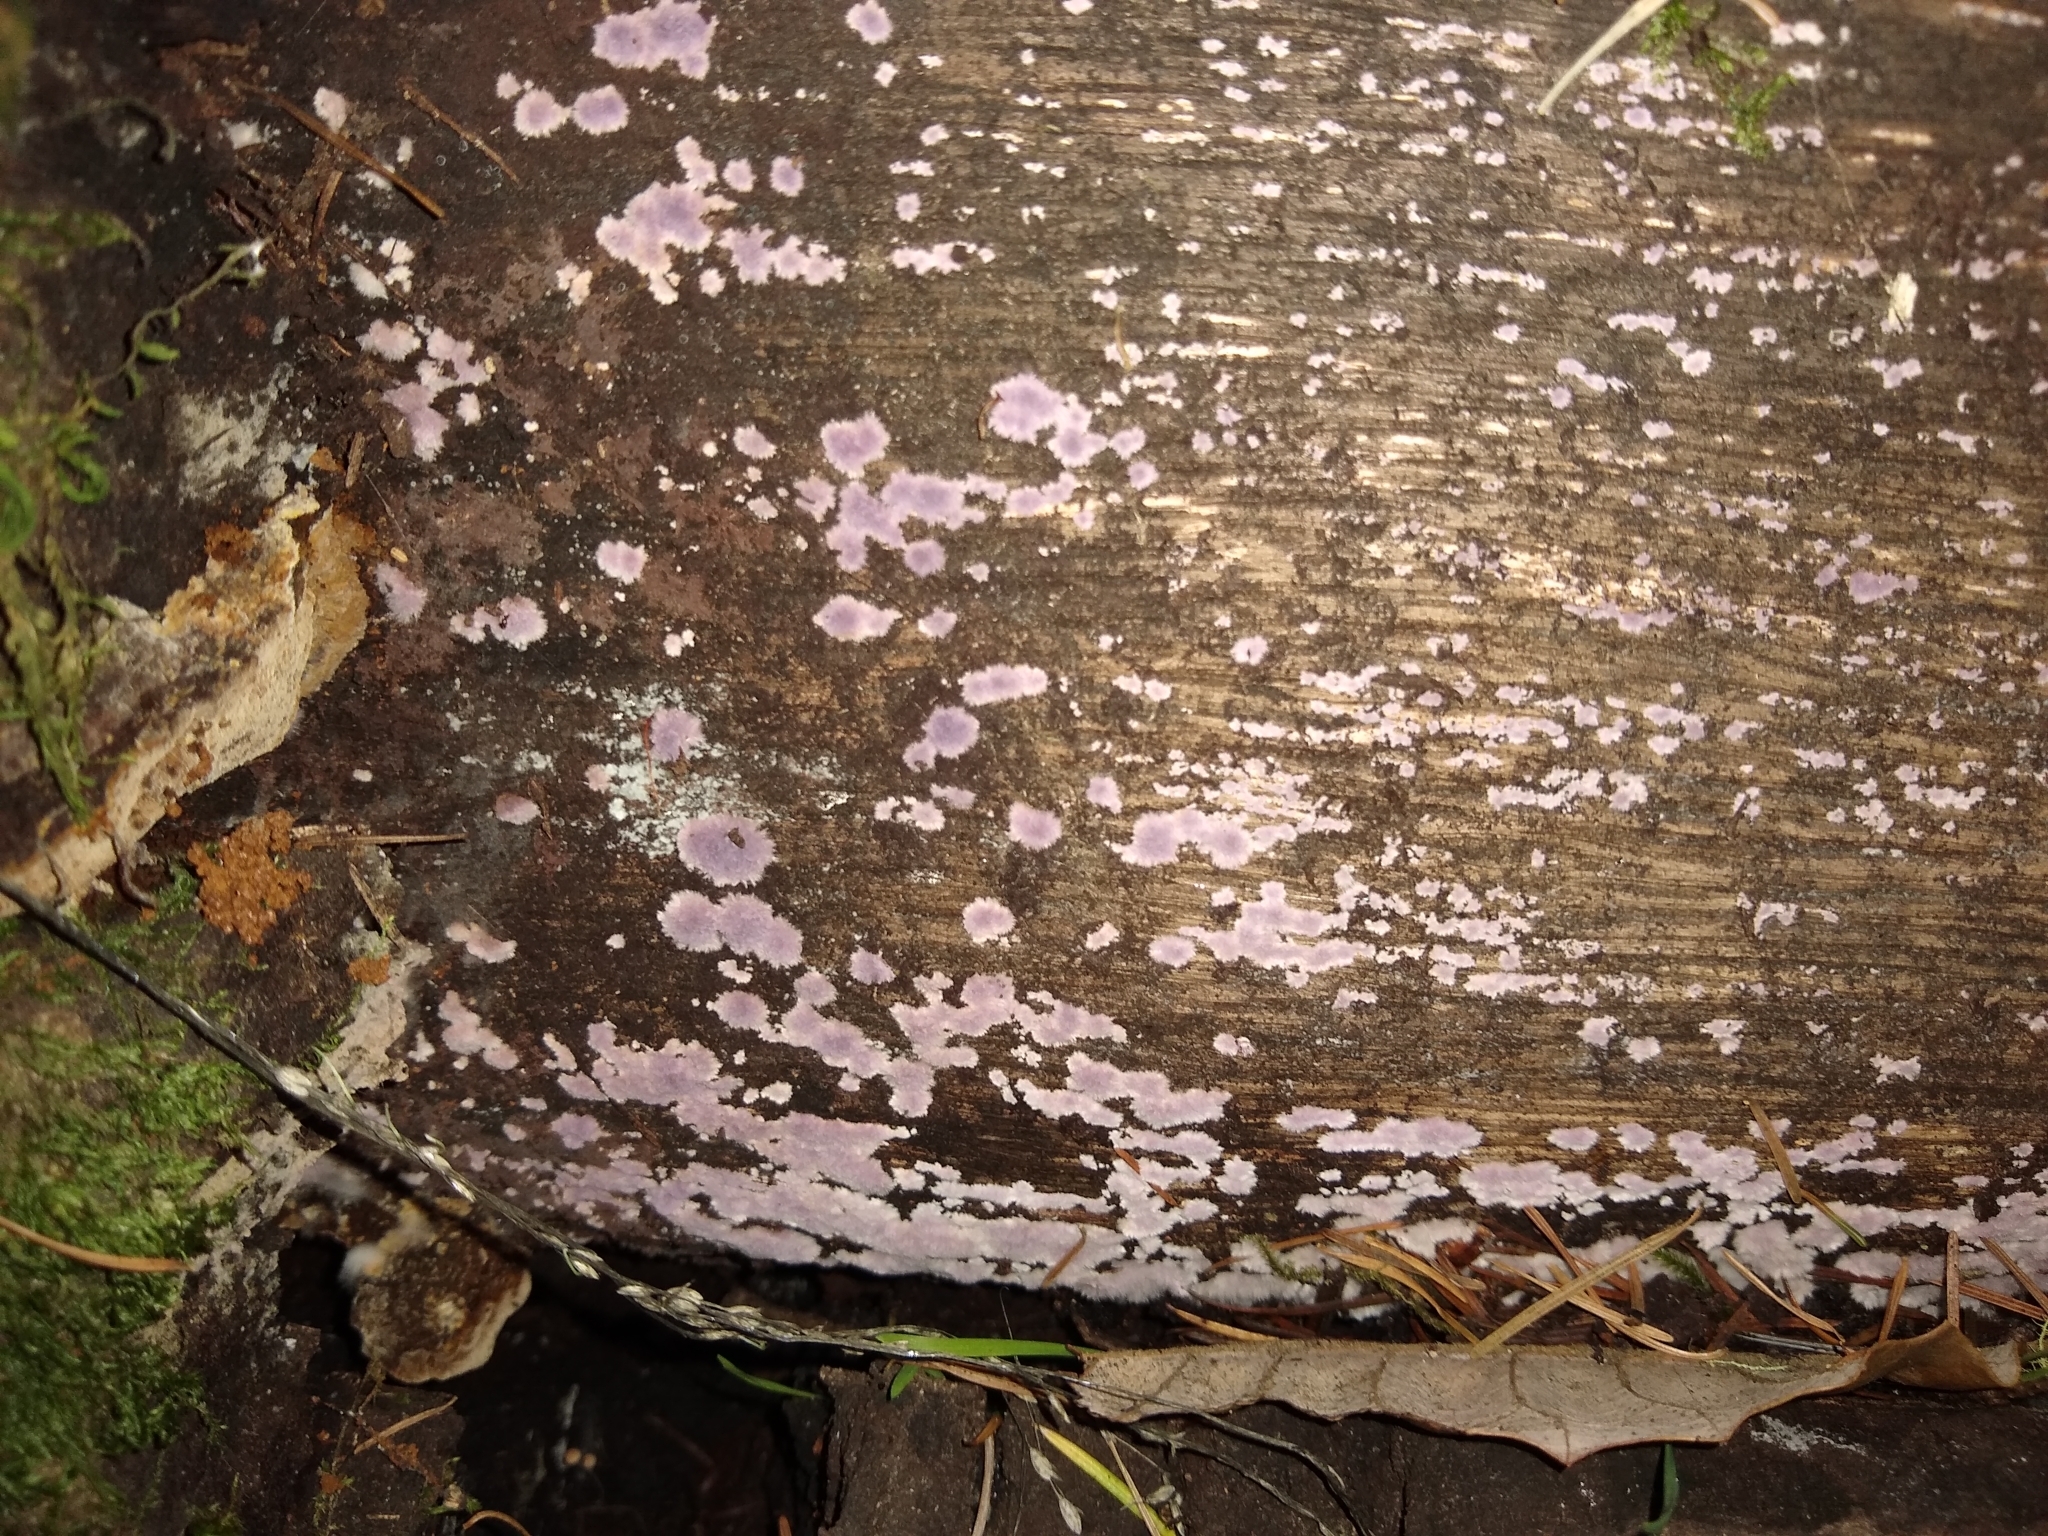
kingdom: Fungi
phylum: Basidiomycota
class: Agaricomycetes
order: Corticiales
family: Punctulariaceae
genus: Punctularia
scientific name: Punctularia atropurpurascens
